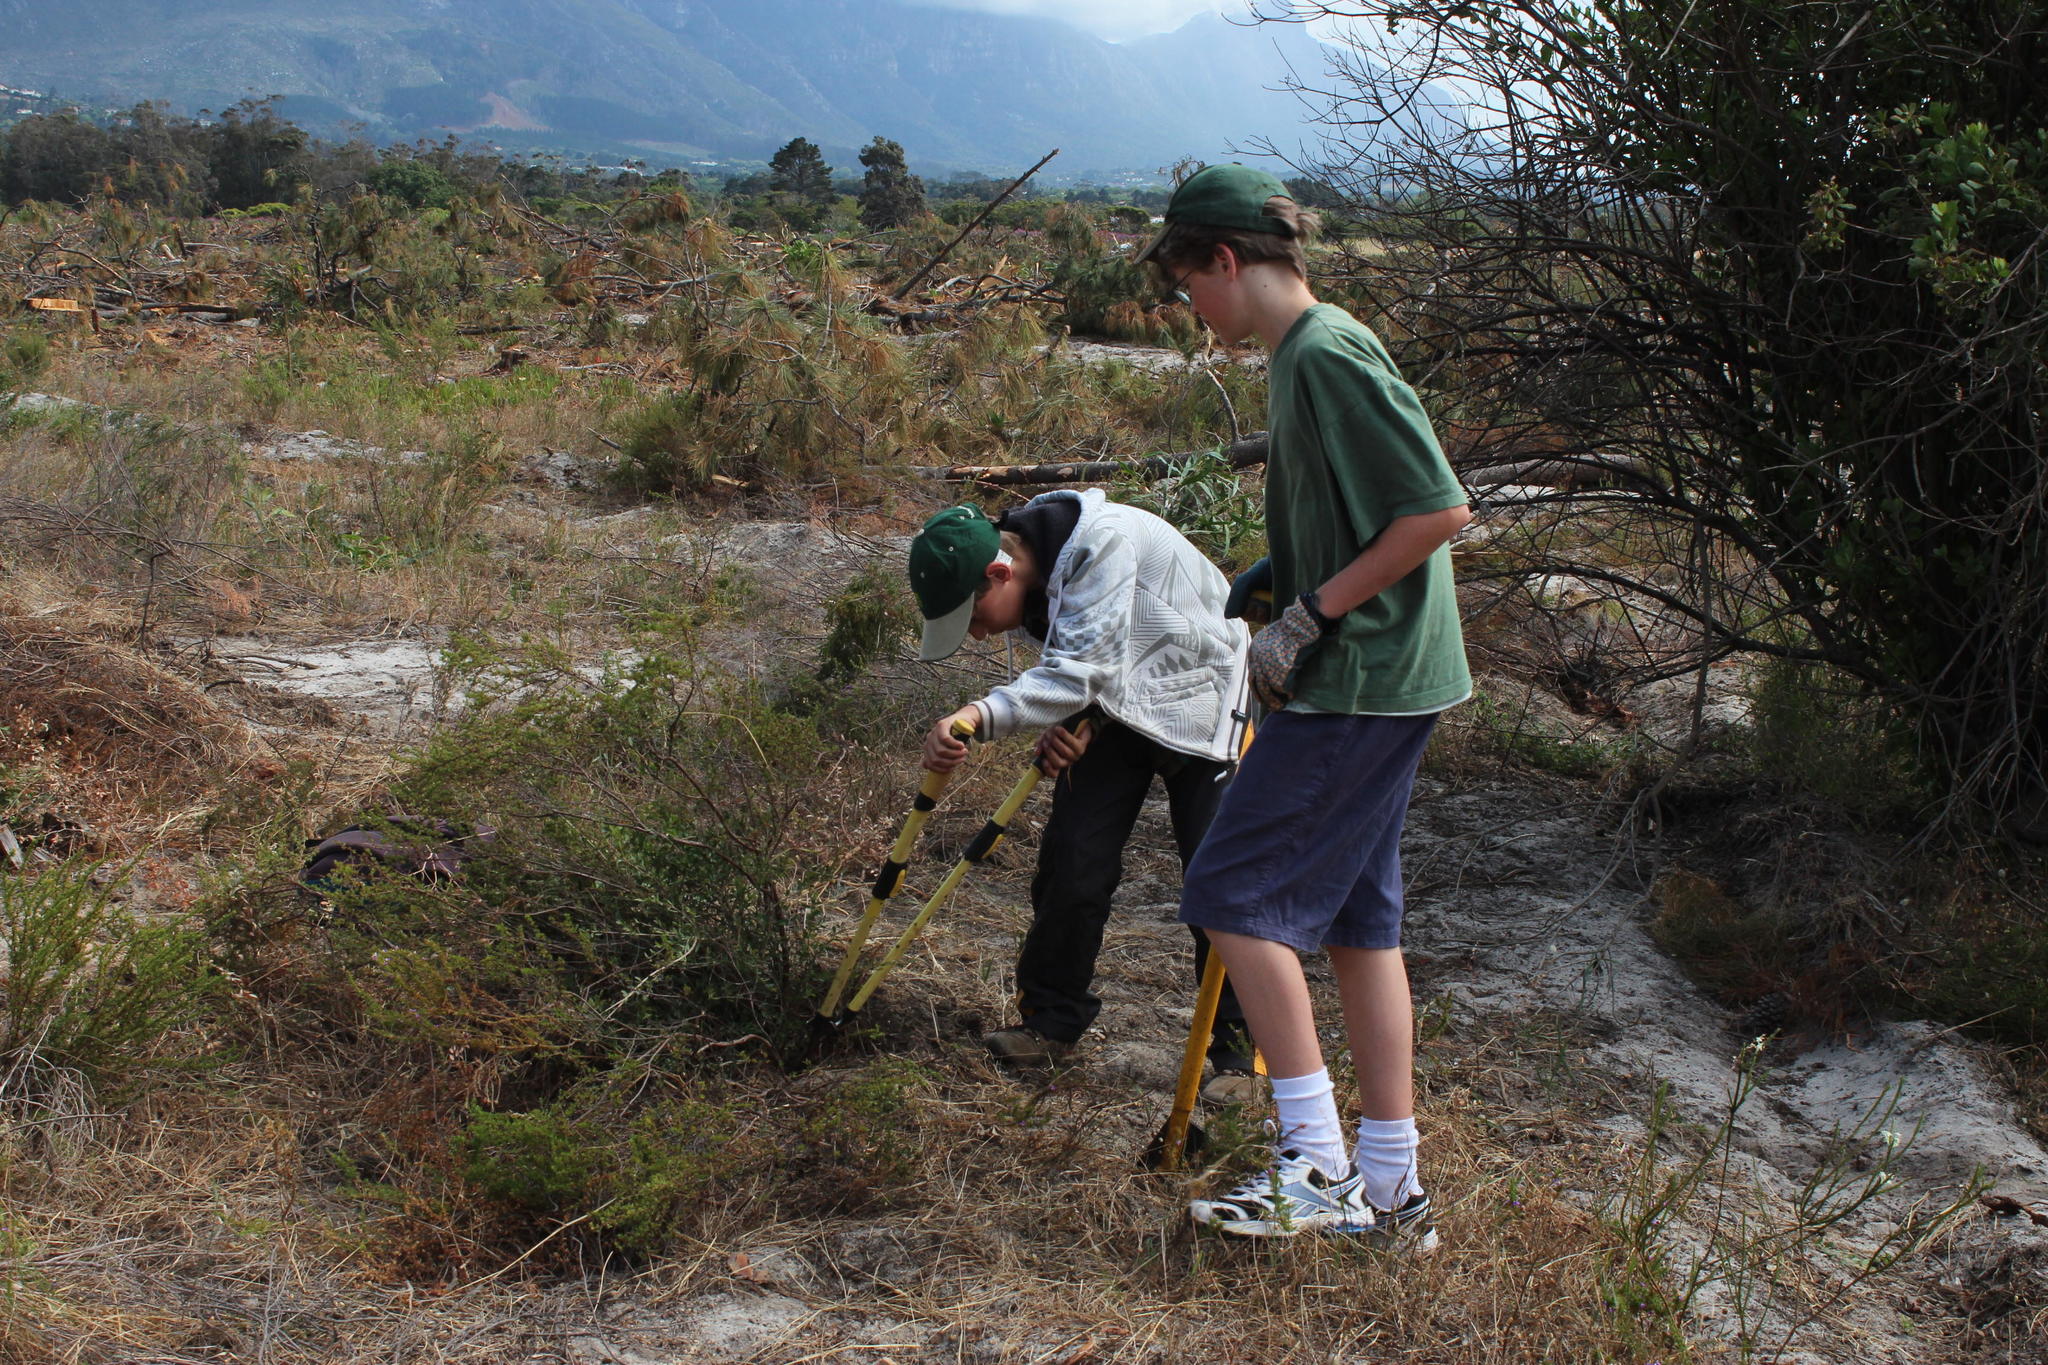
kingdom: Plantae
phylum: Tracheophyta
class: Magnoliopsida
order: Myrtales
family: Myrtaceae
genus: Leptospermum
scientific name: Leptospermum laevigatum
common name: Australian teatree
